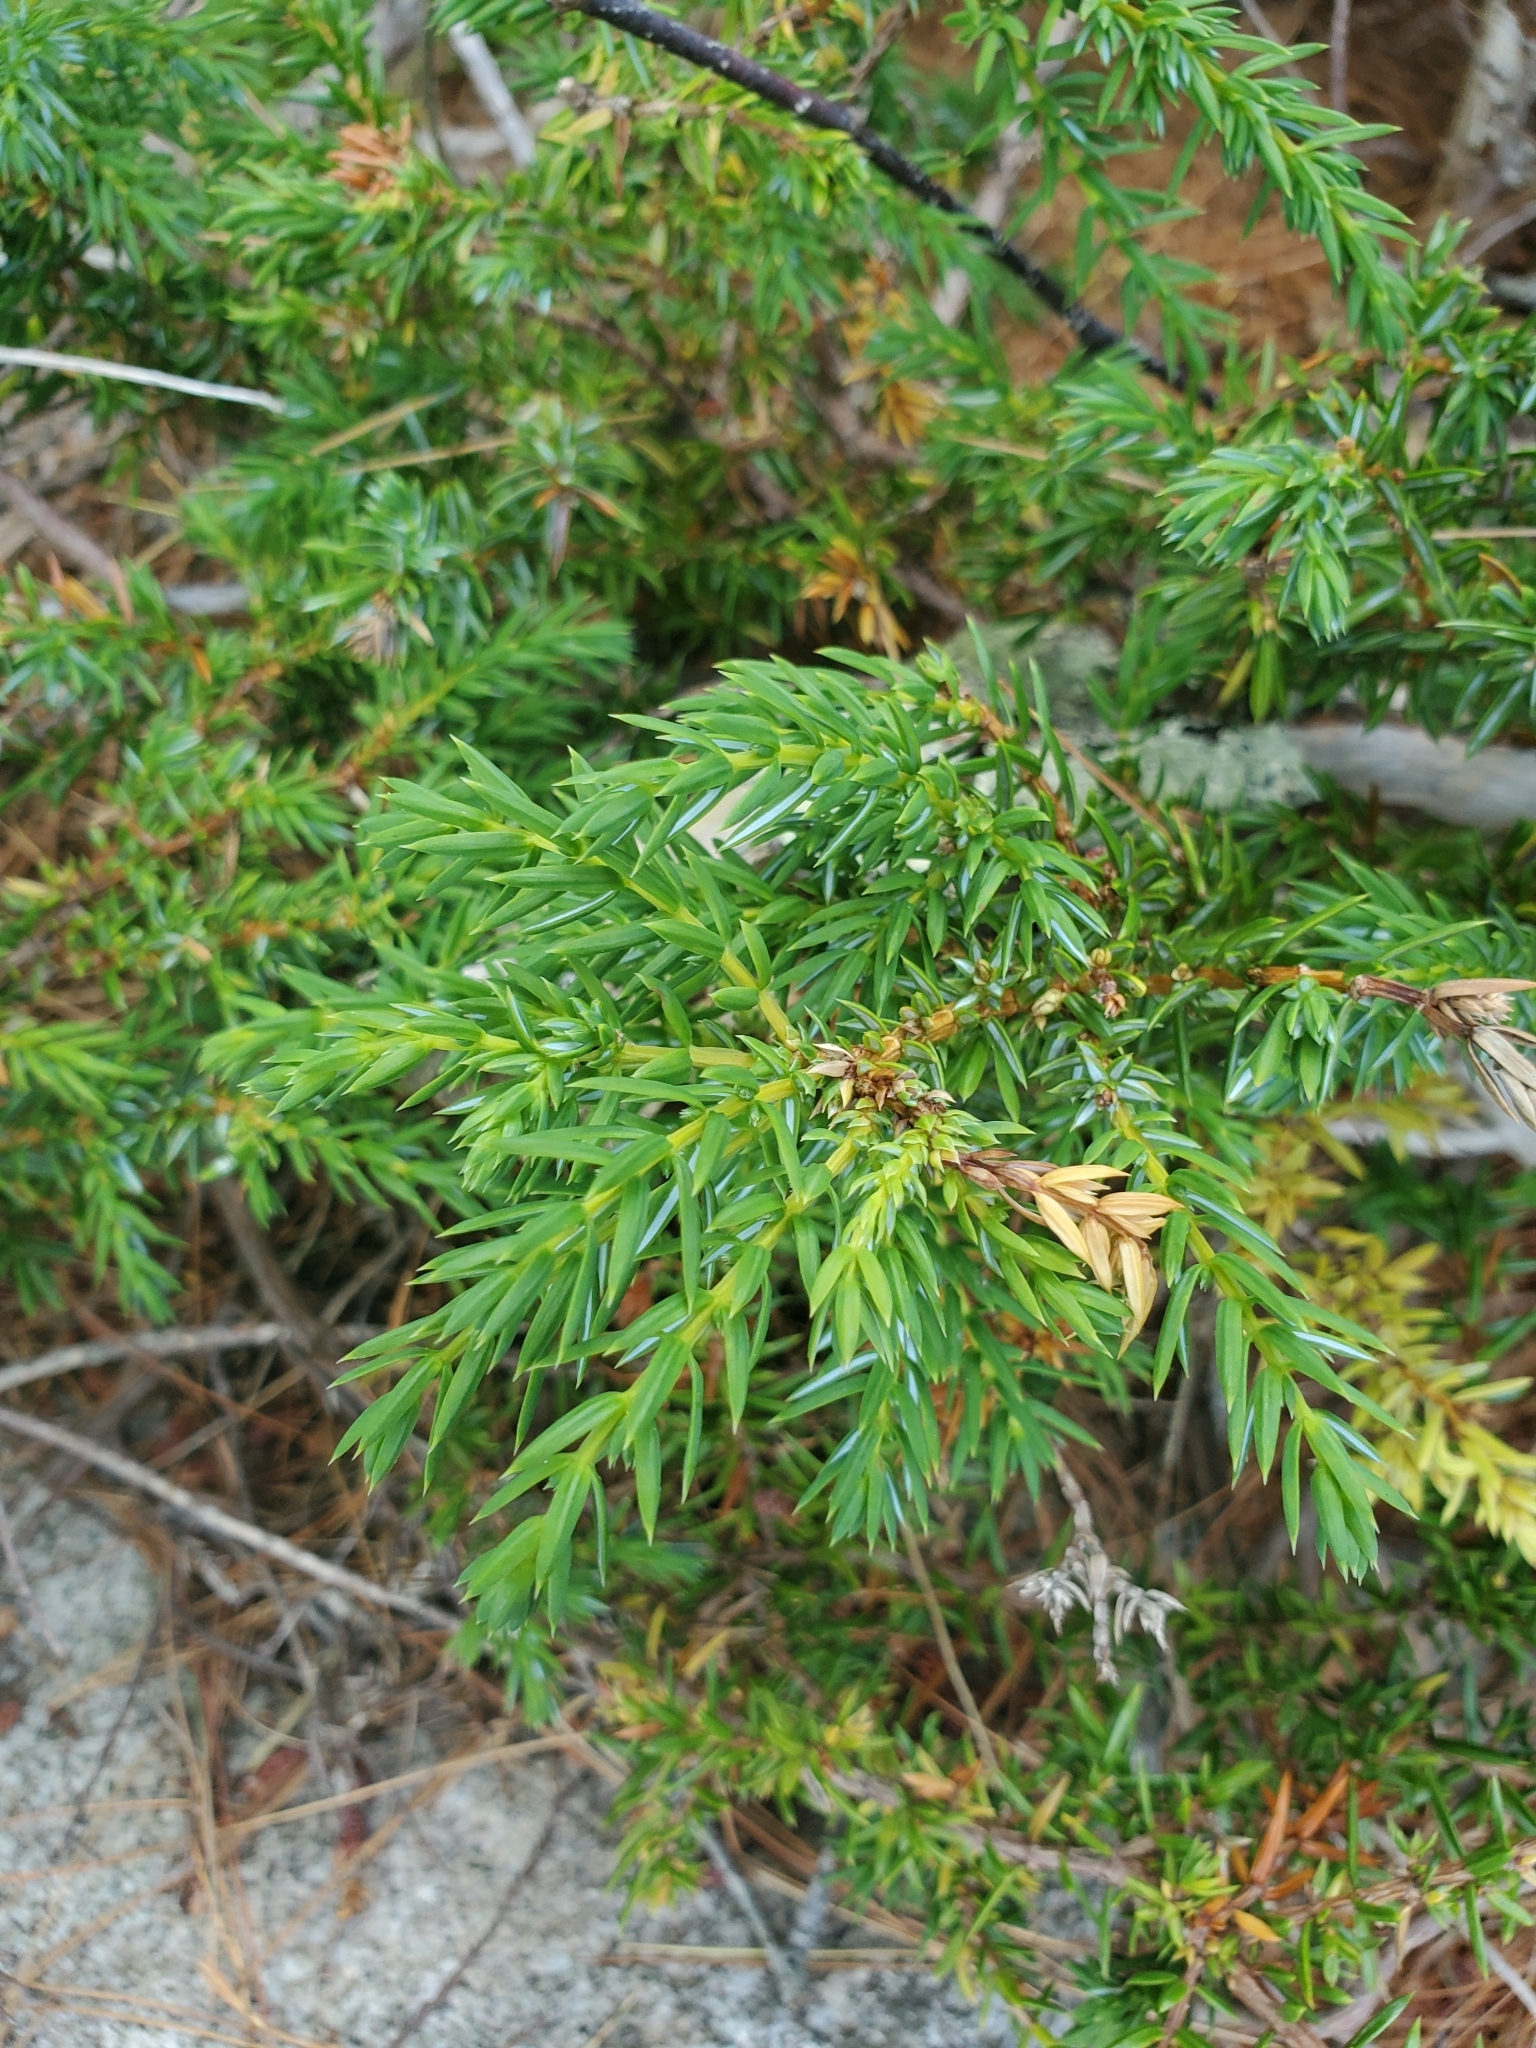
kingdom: Plantae
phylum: Tracheophyta
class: Pinopsida
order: Pinales
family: Cupressaceae
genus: Juniperus
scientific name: Juniperus communis
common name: Common juniper
